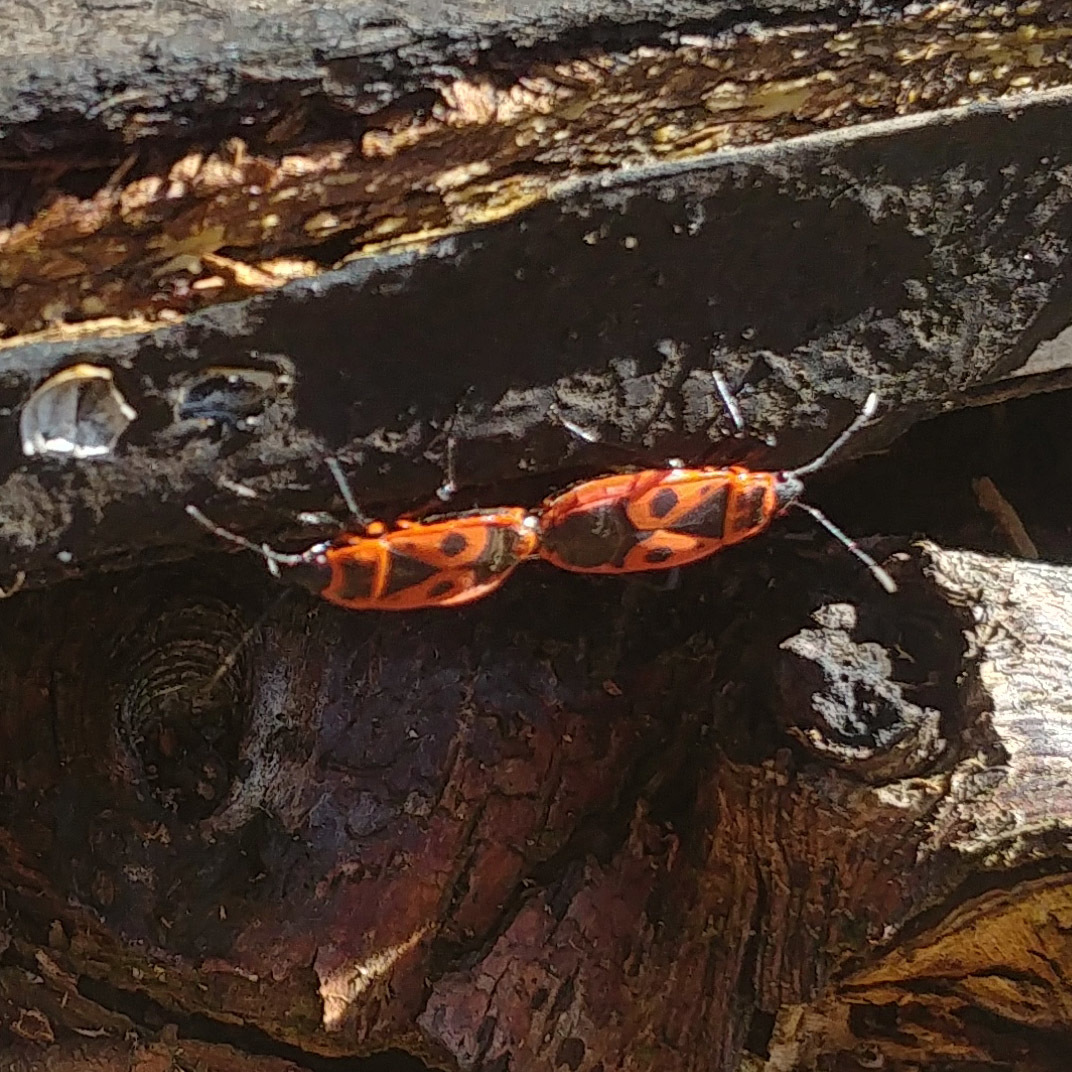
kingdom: Animalia
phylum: Arthropoda
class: Insecta
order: Hemiptera
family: Pyrrhocoridae
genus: Pyrrhocoris
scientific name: Pyrrhocoris apterus
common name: Firebug
